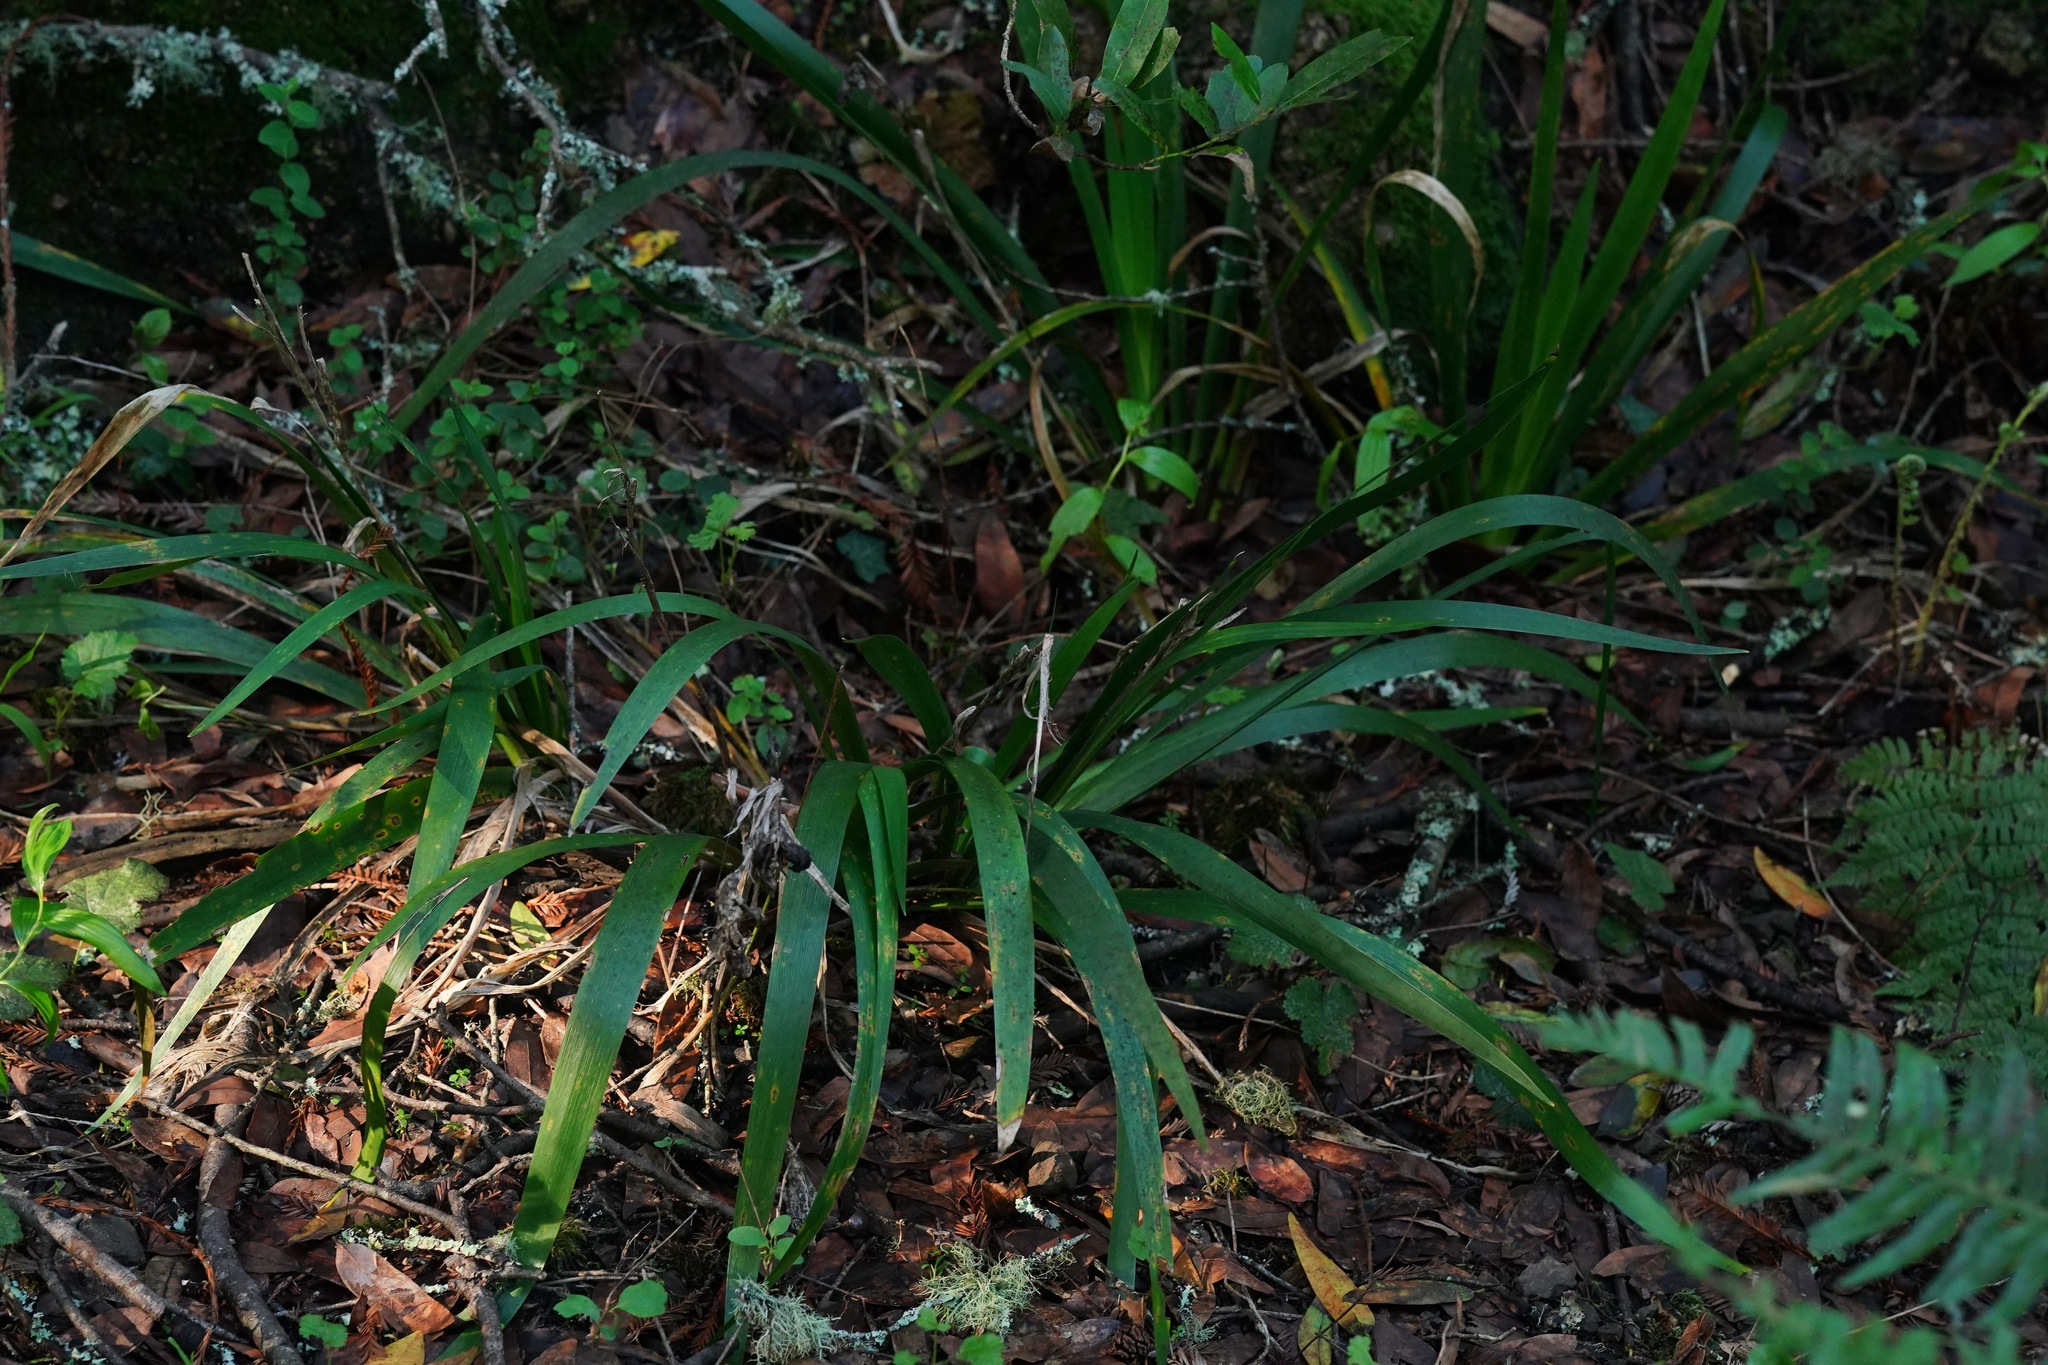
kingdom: Plantae
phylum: Tracheophyta
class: Liliopsida
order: Asparagales
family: Iridaceae
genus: Iris
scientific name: Iris foetidissima
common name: Stinking iris
